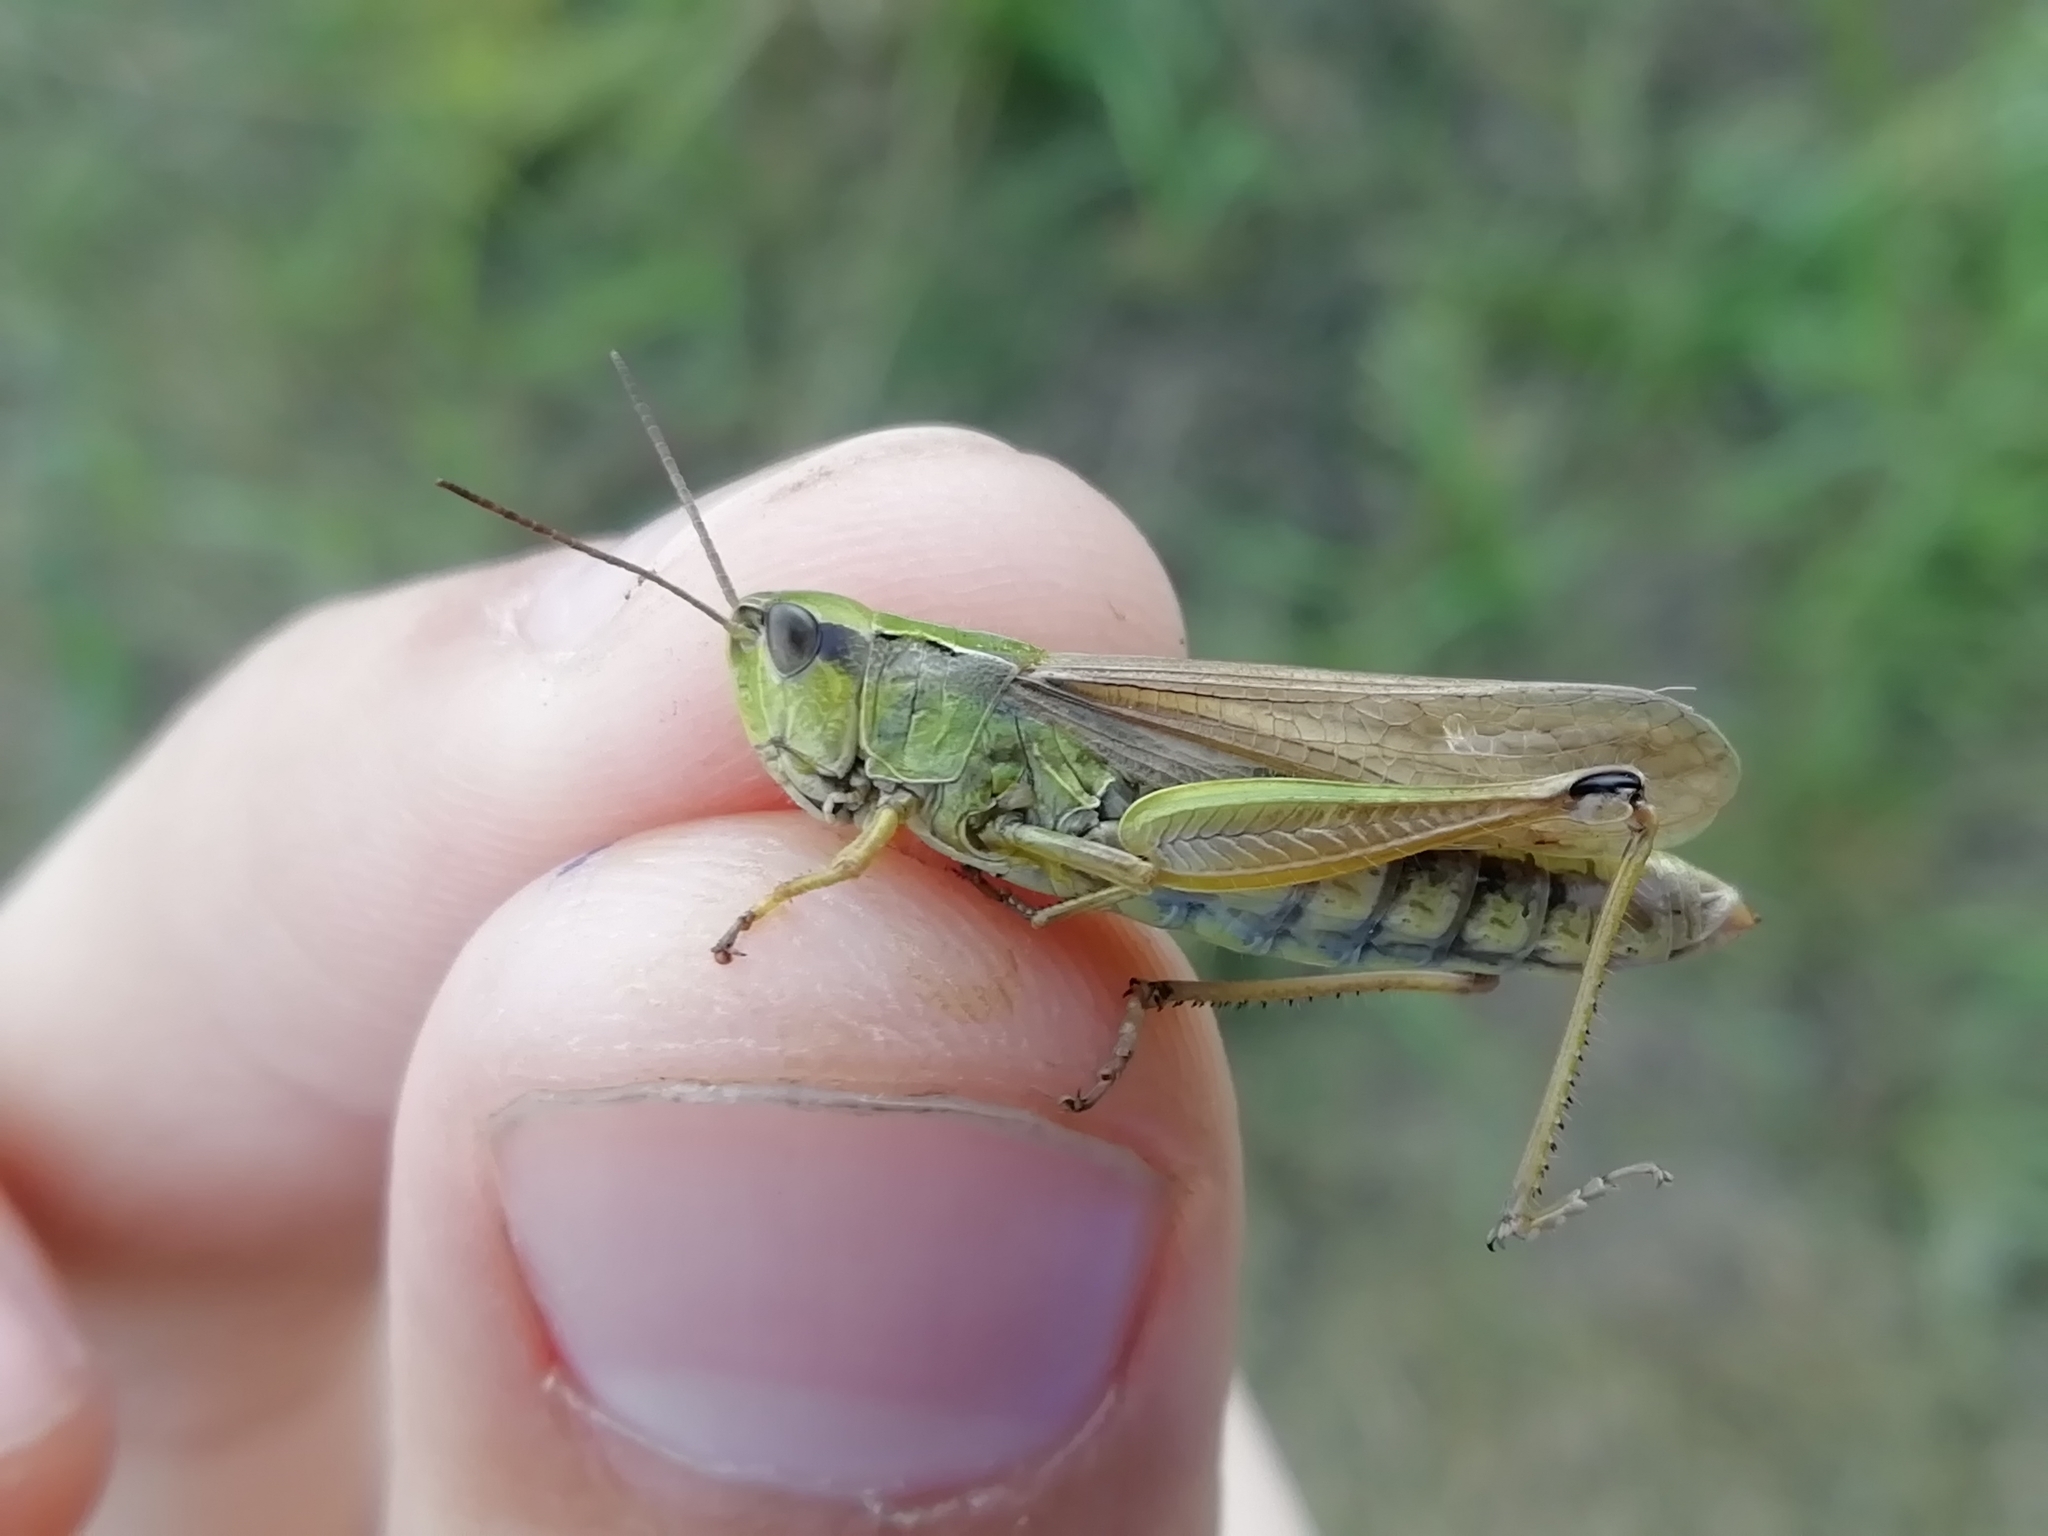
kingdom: Animalia
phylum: Arthropoda
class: Insecta
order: Orthoptera
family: Acrididae
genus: Chorthippus
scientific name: Chorthippus fallax
